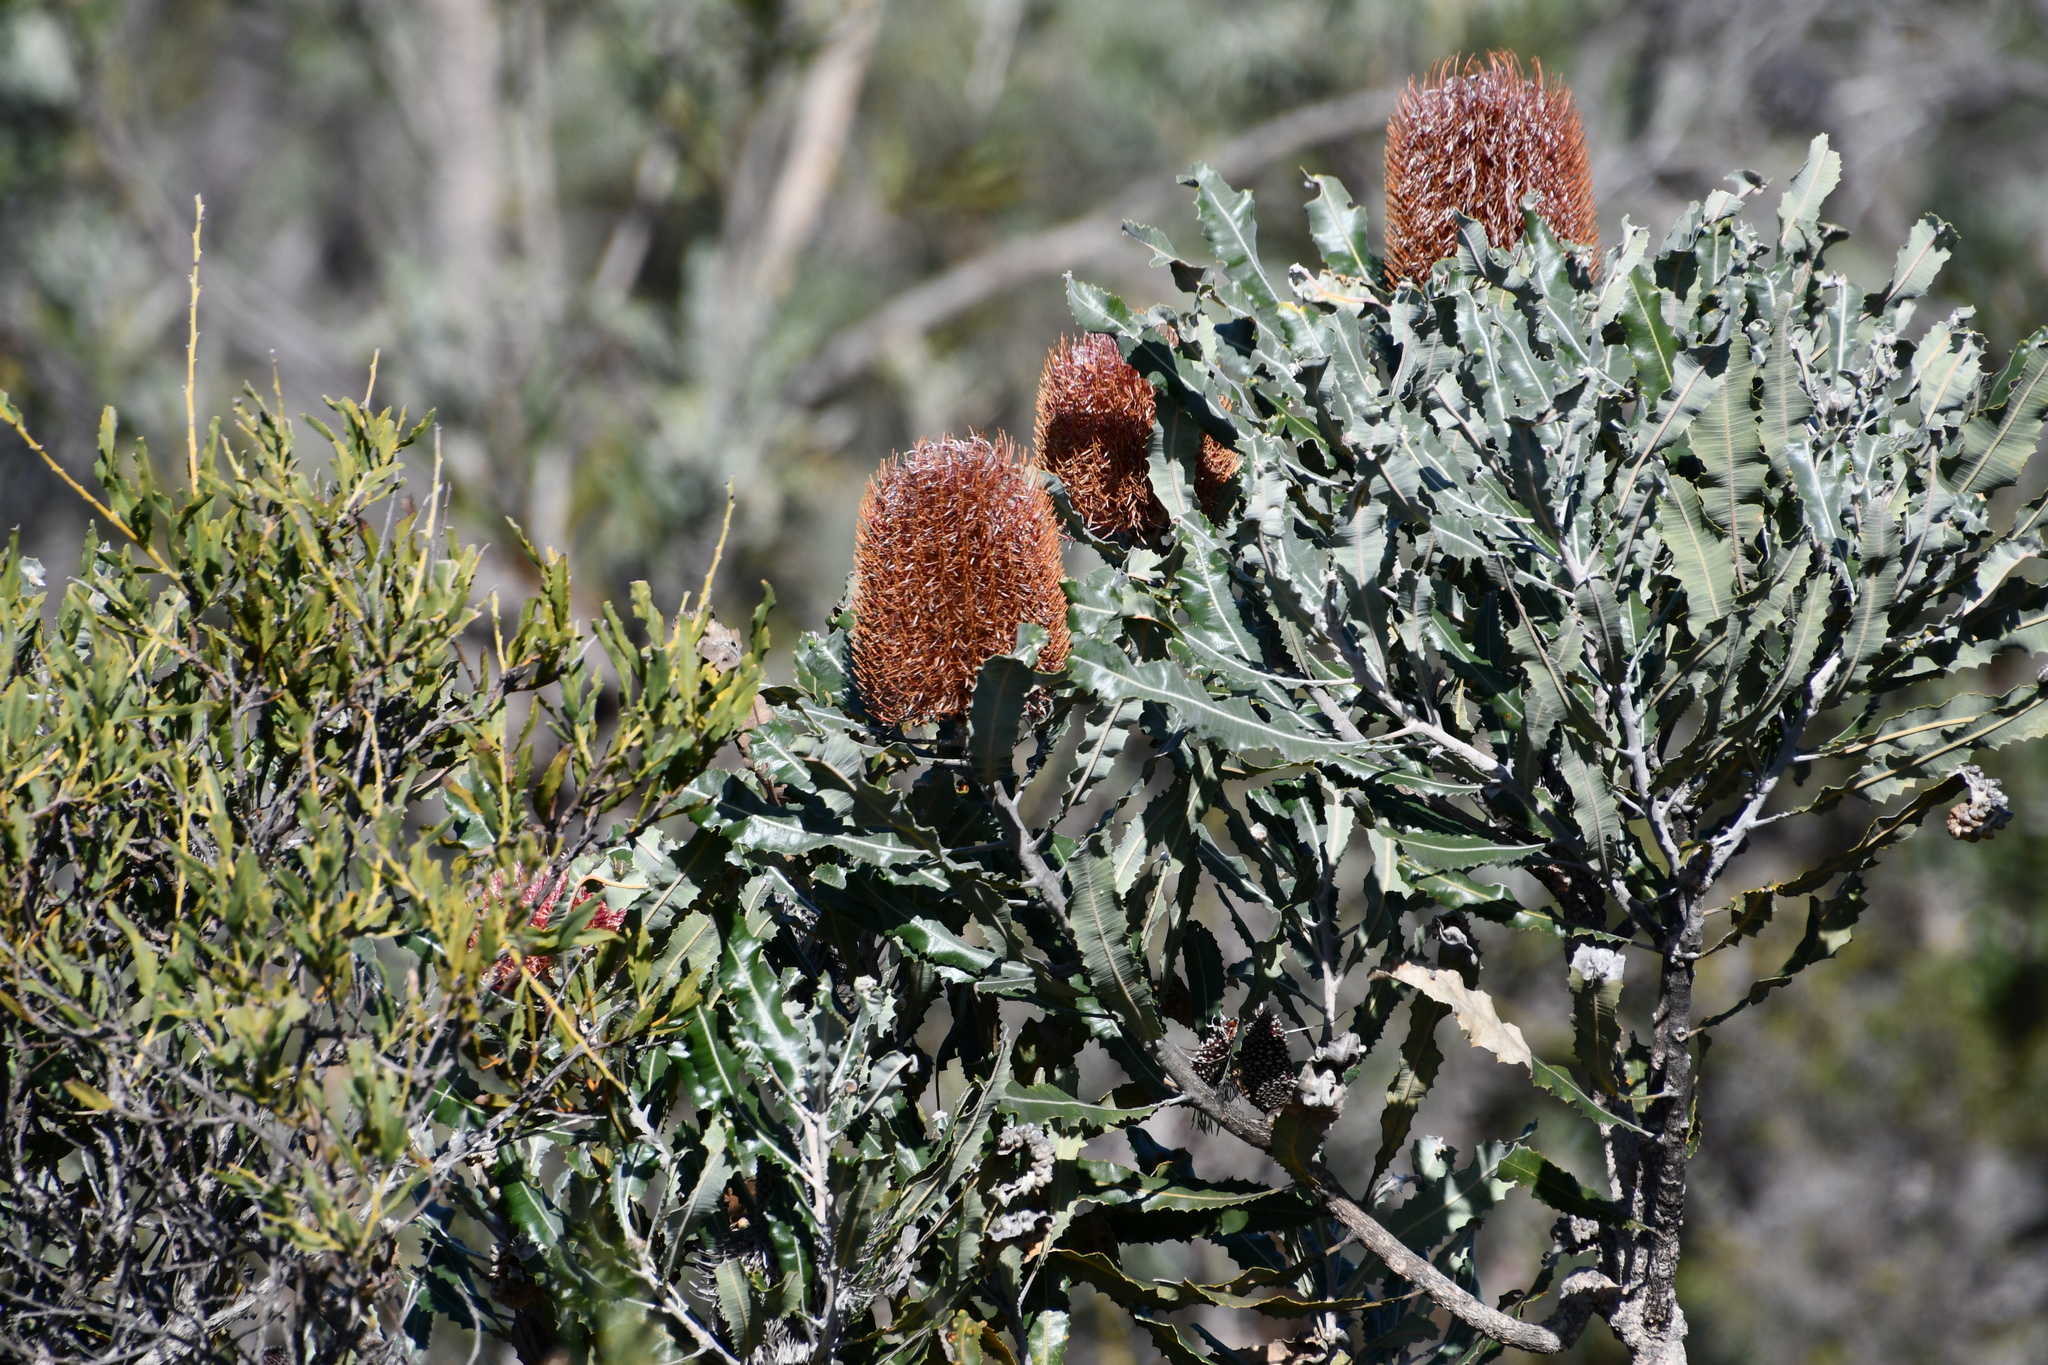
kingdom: Plantae
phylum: Tracheophyta
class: Magnoliopsida
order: Proteales
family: Proteaceae
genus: Banksia
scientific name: Banksia menziesii
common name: Menzie's banksia
